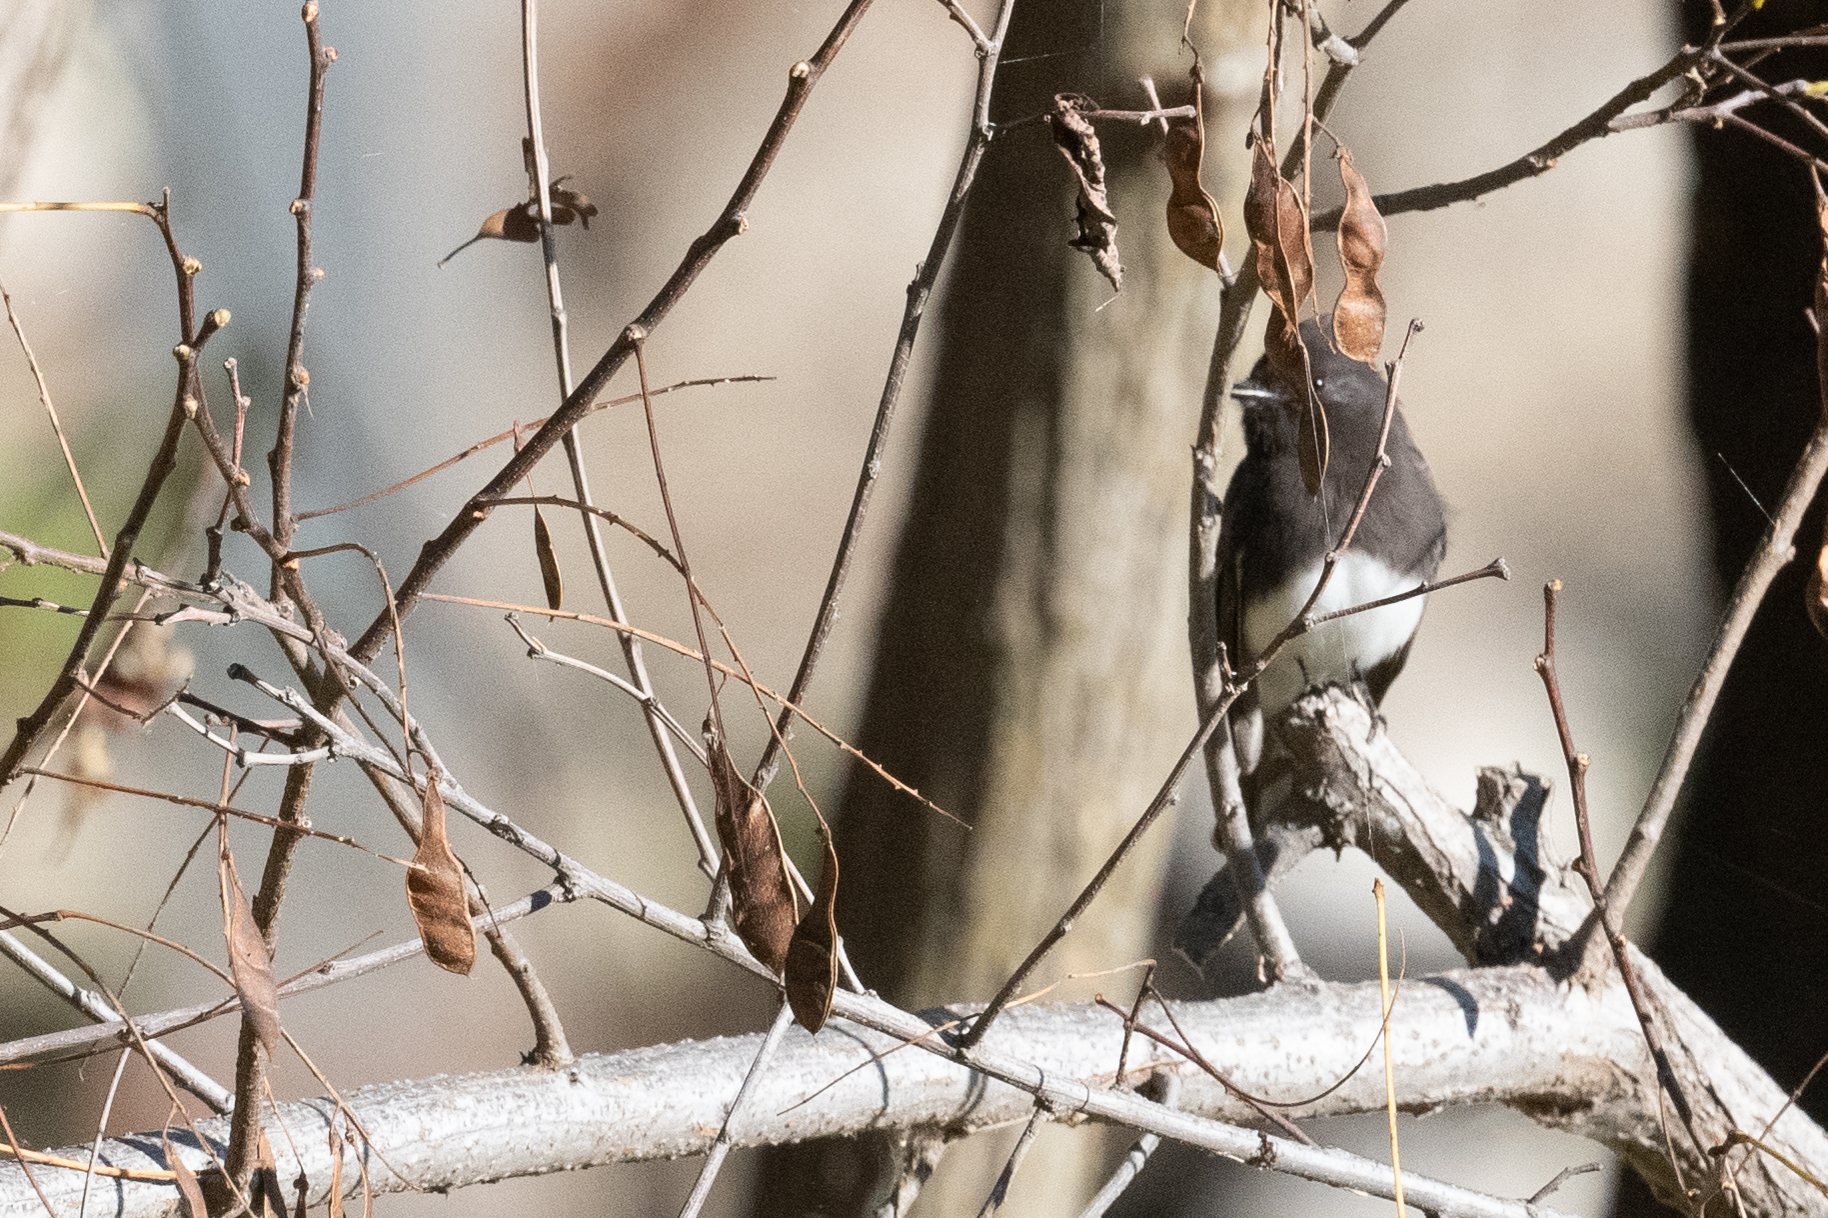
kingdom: Animalia
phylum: Chordata
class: Aves
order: Passeriformes
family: Tyrannidae
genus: Sayornis
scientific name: Sayornis nigricans
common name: Black phoebe
